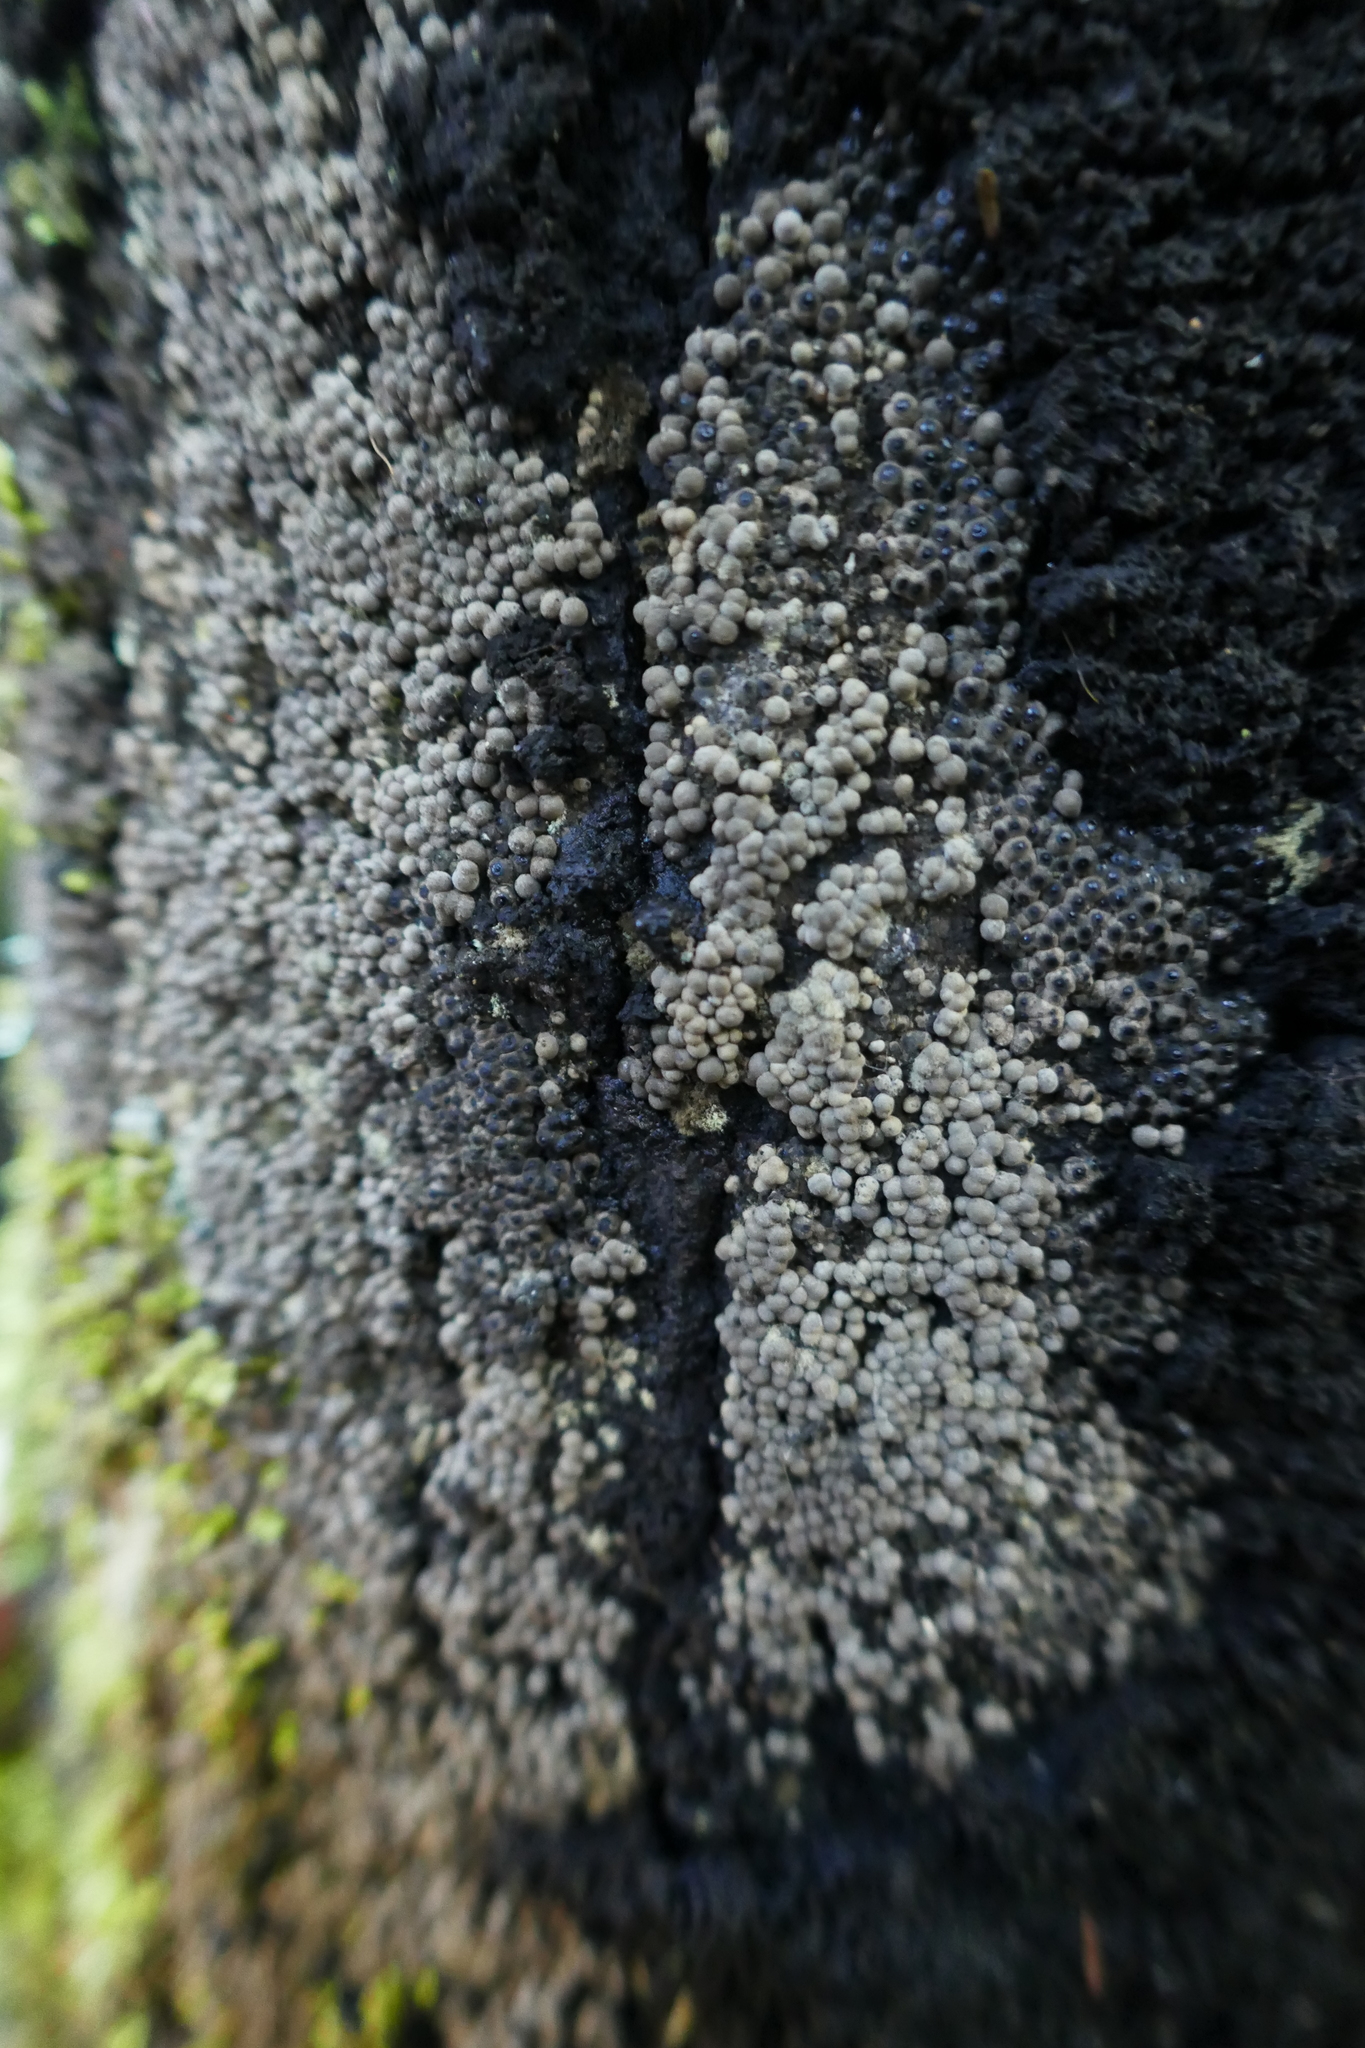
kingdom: Fungi
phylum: Ascomycota
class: Sordariomycetes
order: Xylariales
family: Hypoxylaceae
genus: Annulohypoxylon
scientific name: Annulohypoxylon bovei
